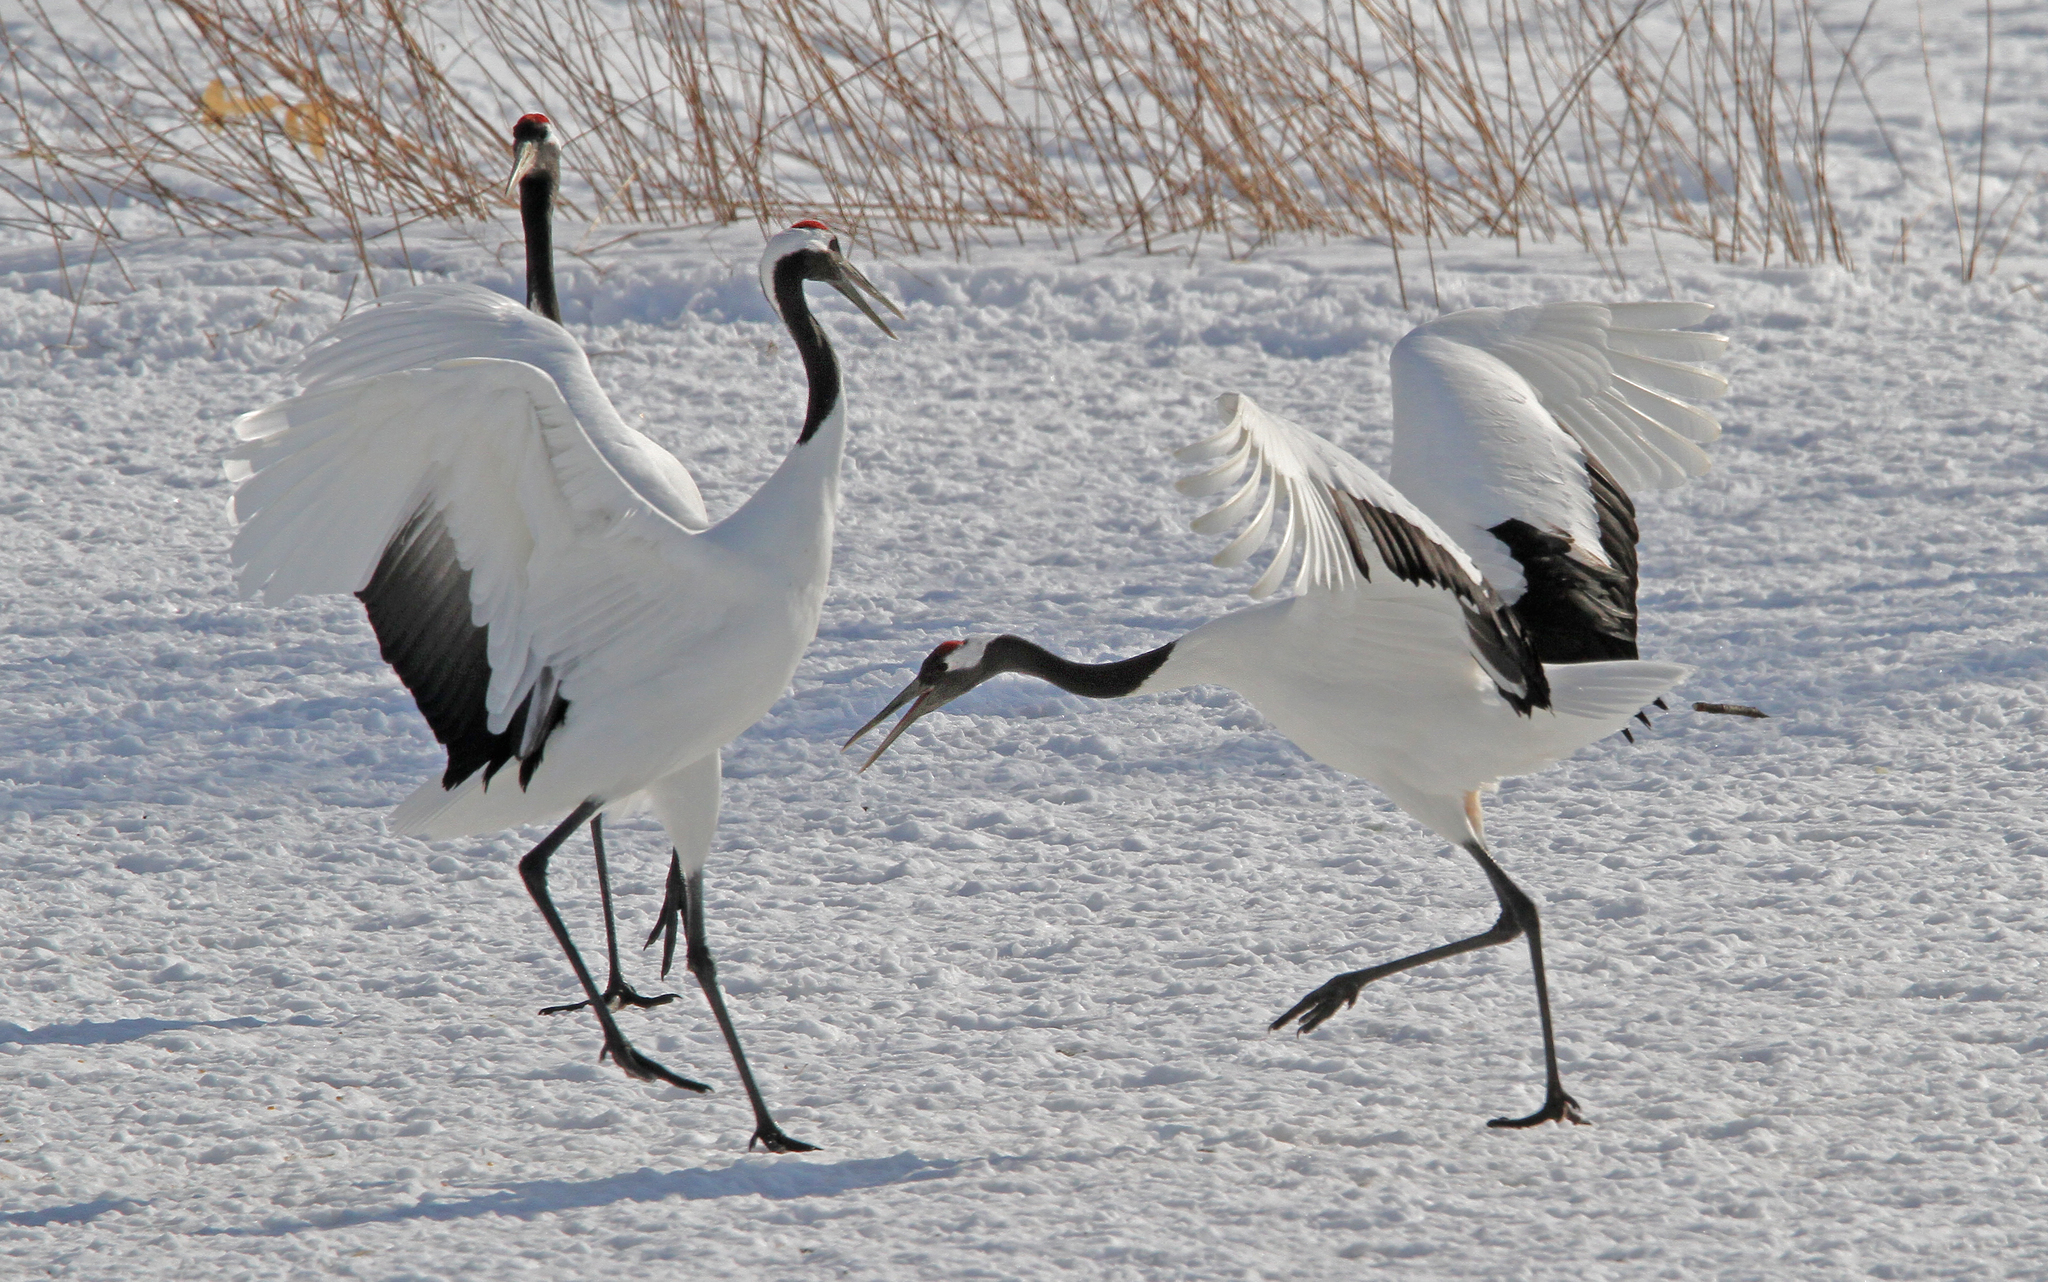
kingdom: Animalia
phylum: Chordata
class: Aves
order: Gruiformes
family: Gruidae
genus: Grus
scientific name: Grus japonensis
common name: Red-crowned crane
